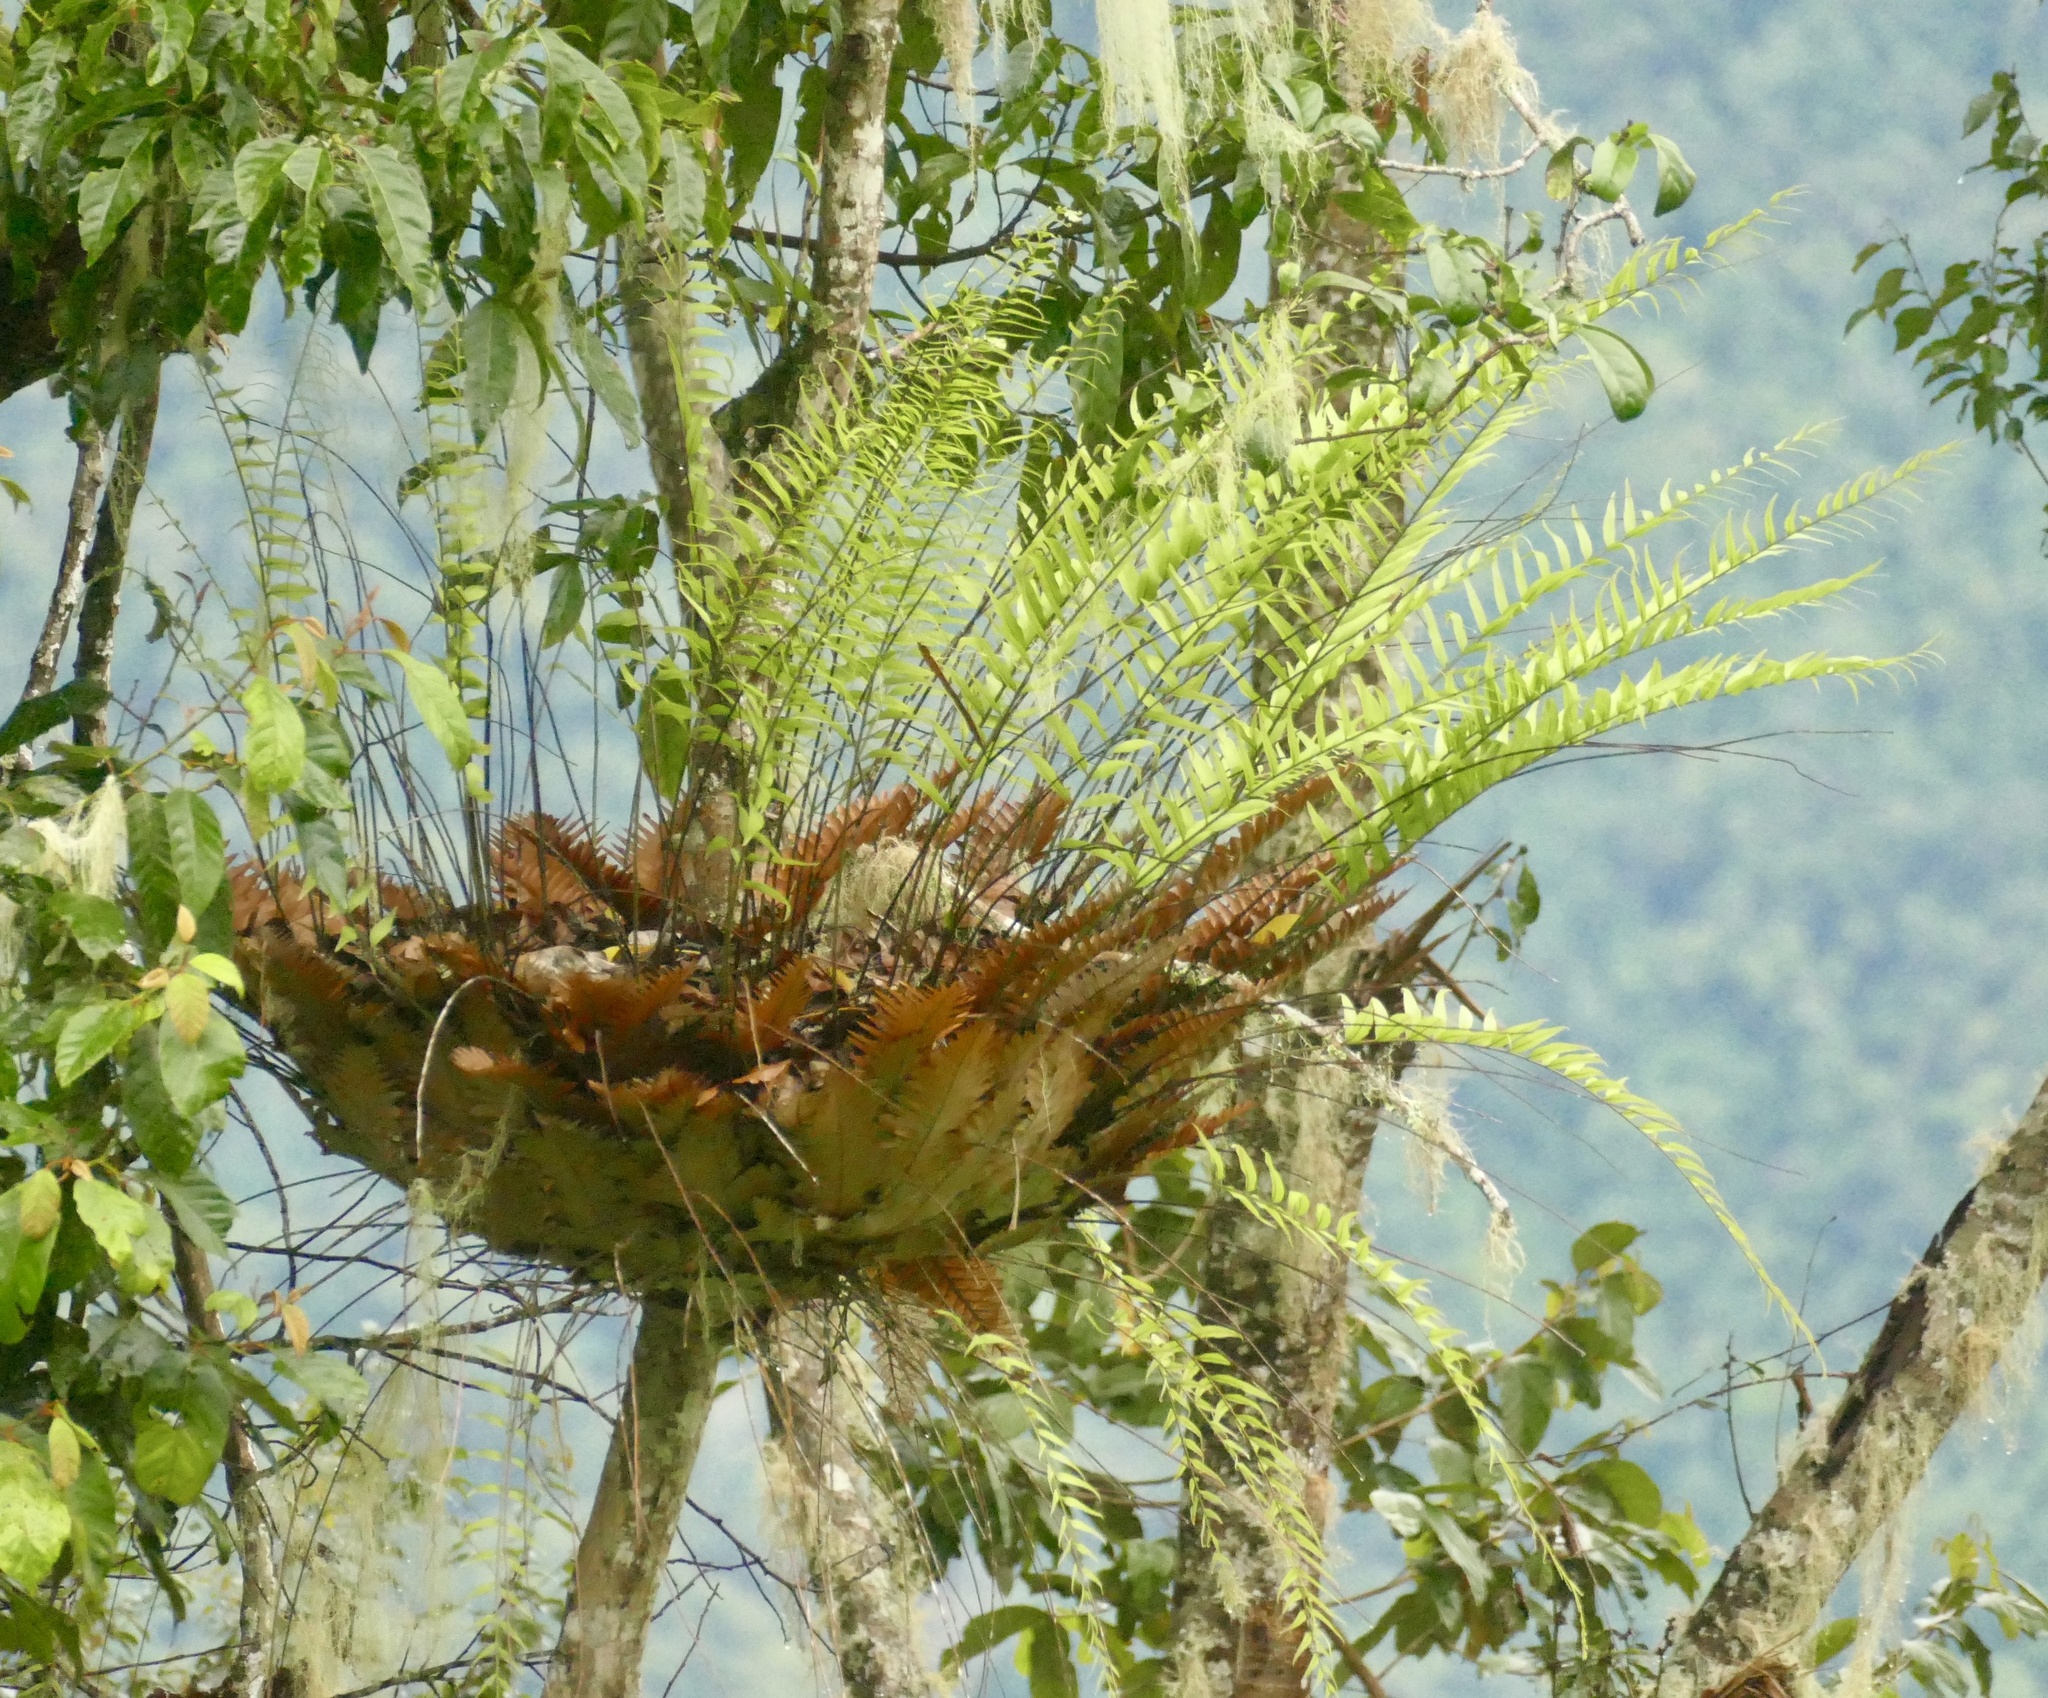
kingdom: Plantae
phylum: Tracheophyta
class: Polypodiopsida
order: Polypodiales
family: Polypodiaceae
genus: Drynaria
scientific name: Drynaria rigidula
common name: Basket fern
